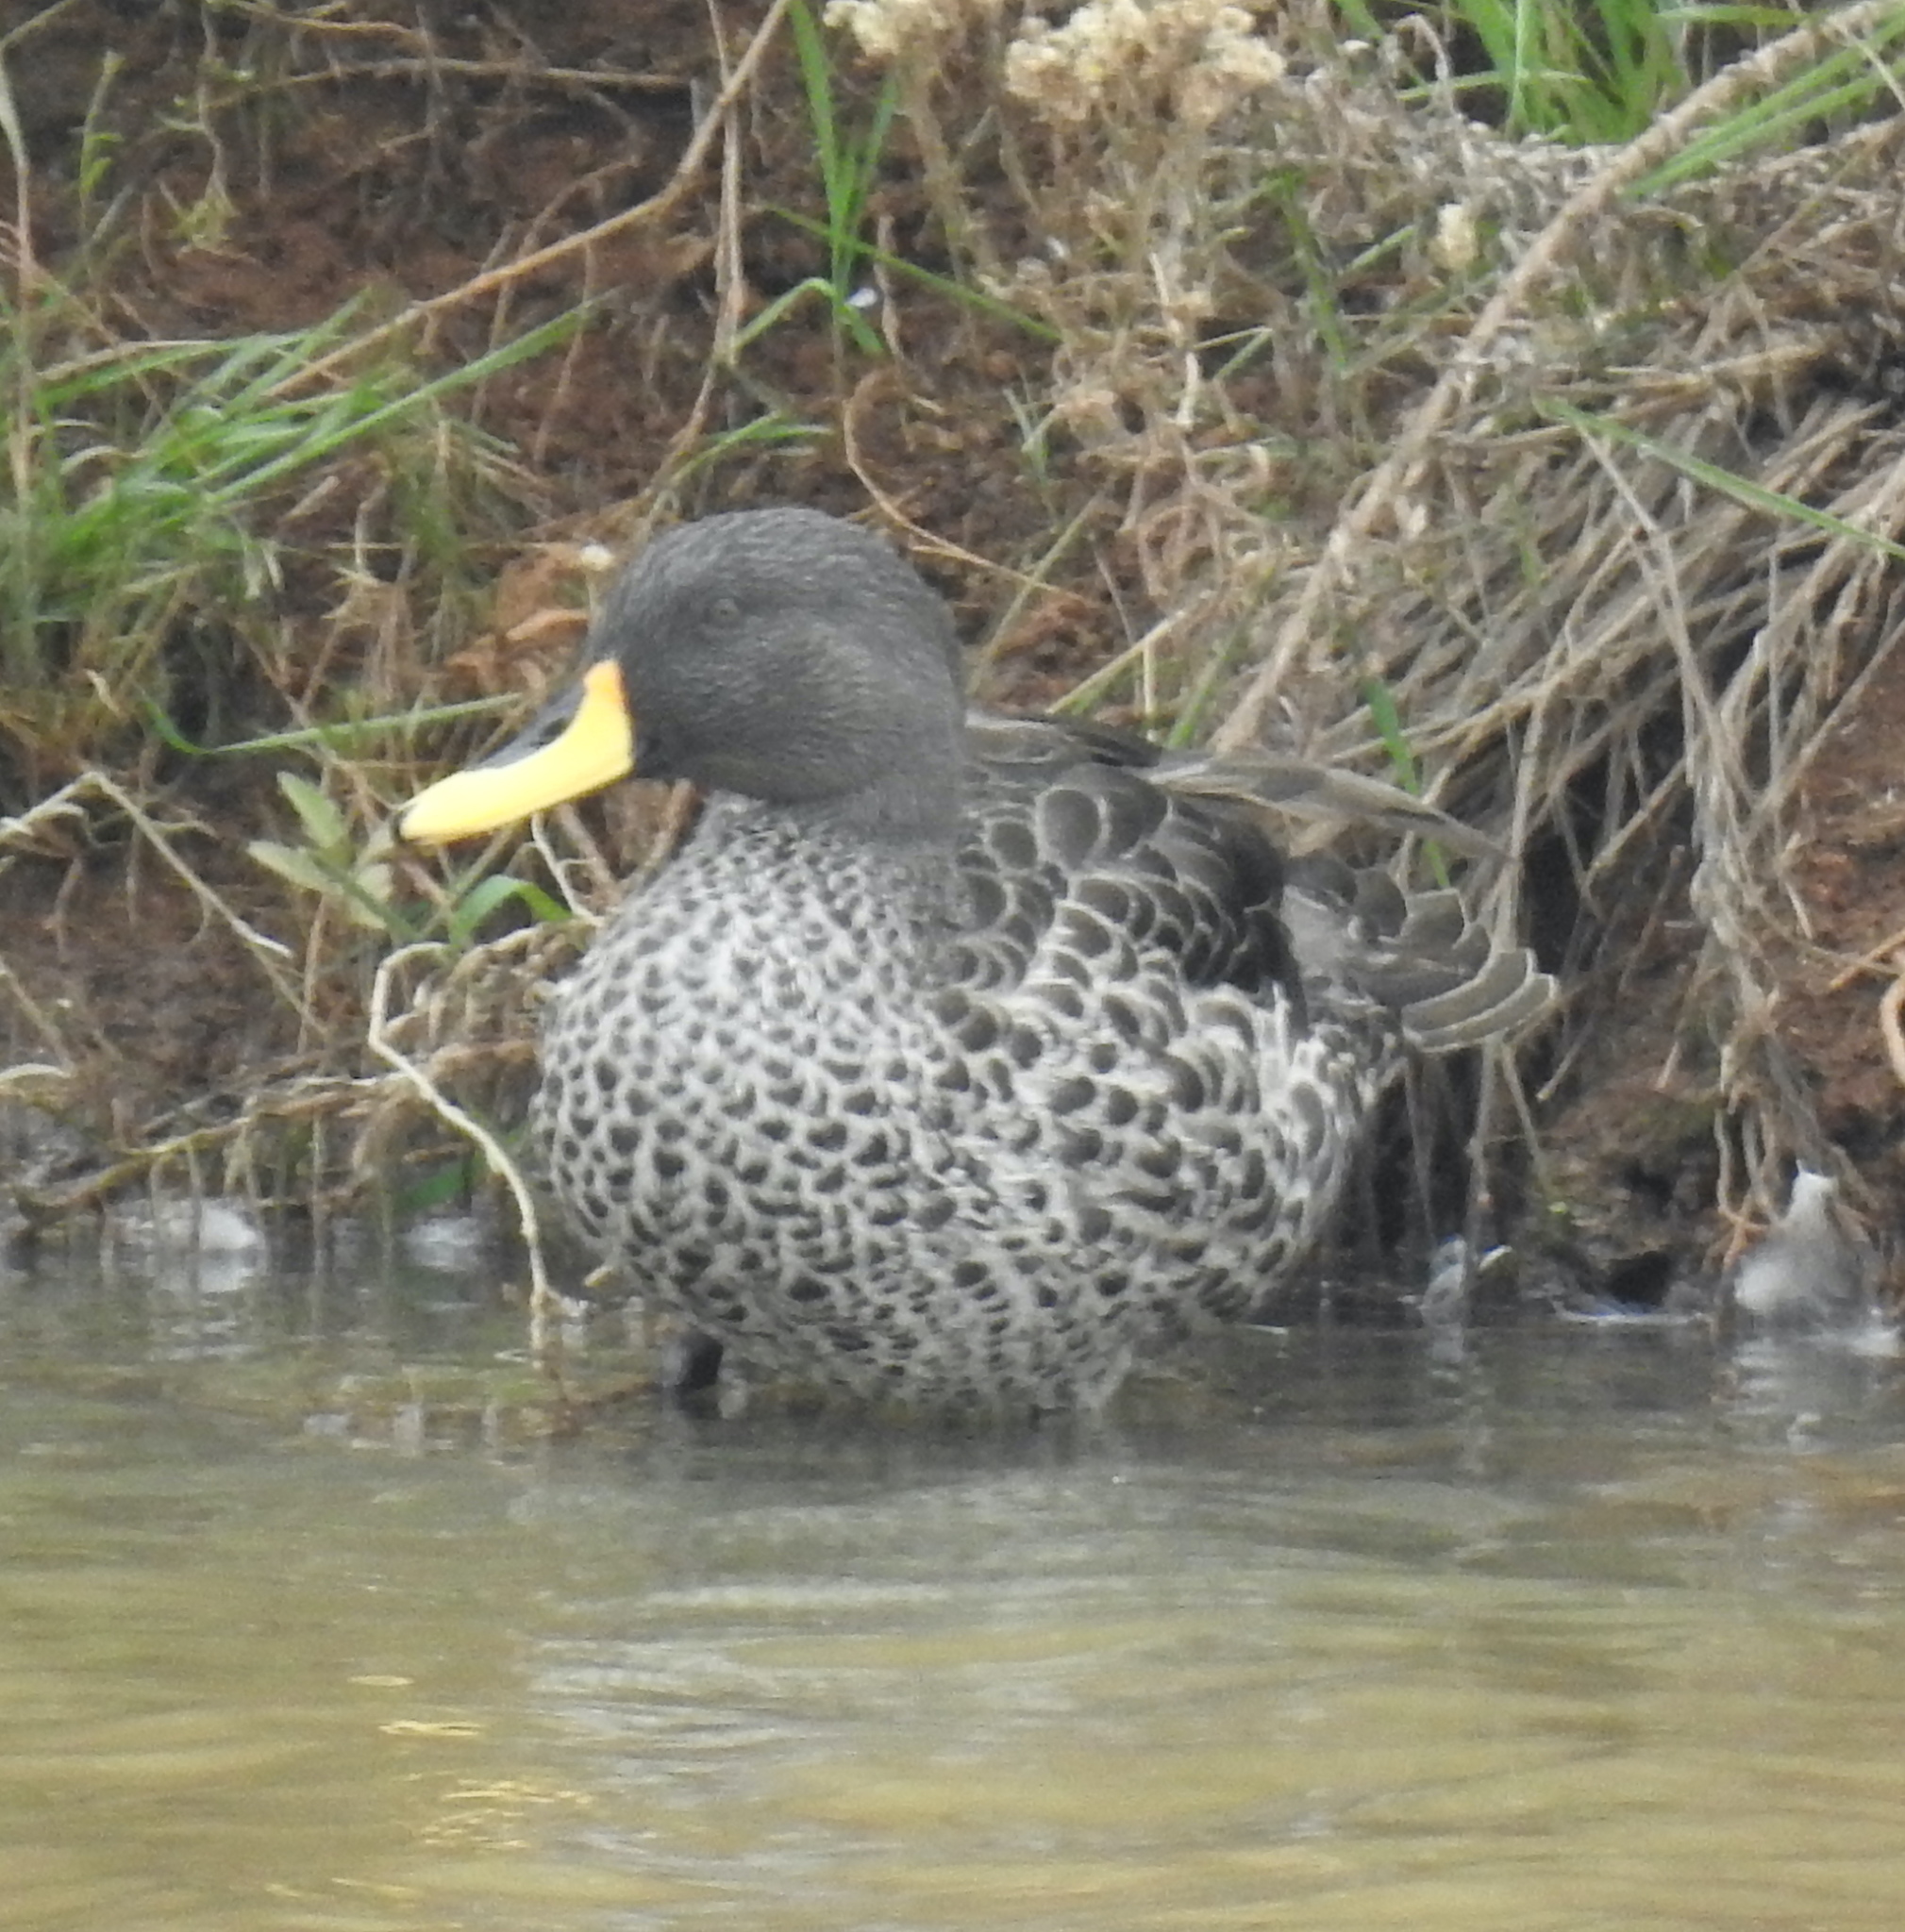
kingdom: Animalia
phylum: Chordata
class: Aves
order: Anseriformes
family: Anatidae
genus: Anas
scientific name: Anas undulata
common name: Yellow-billed duck
